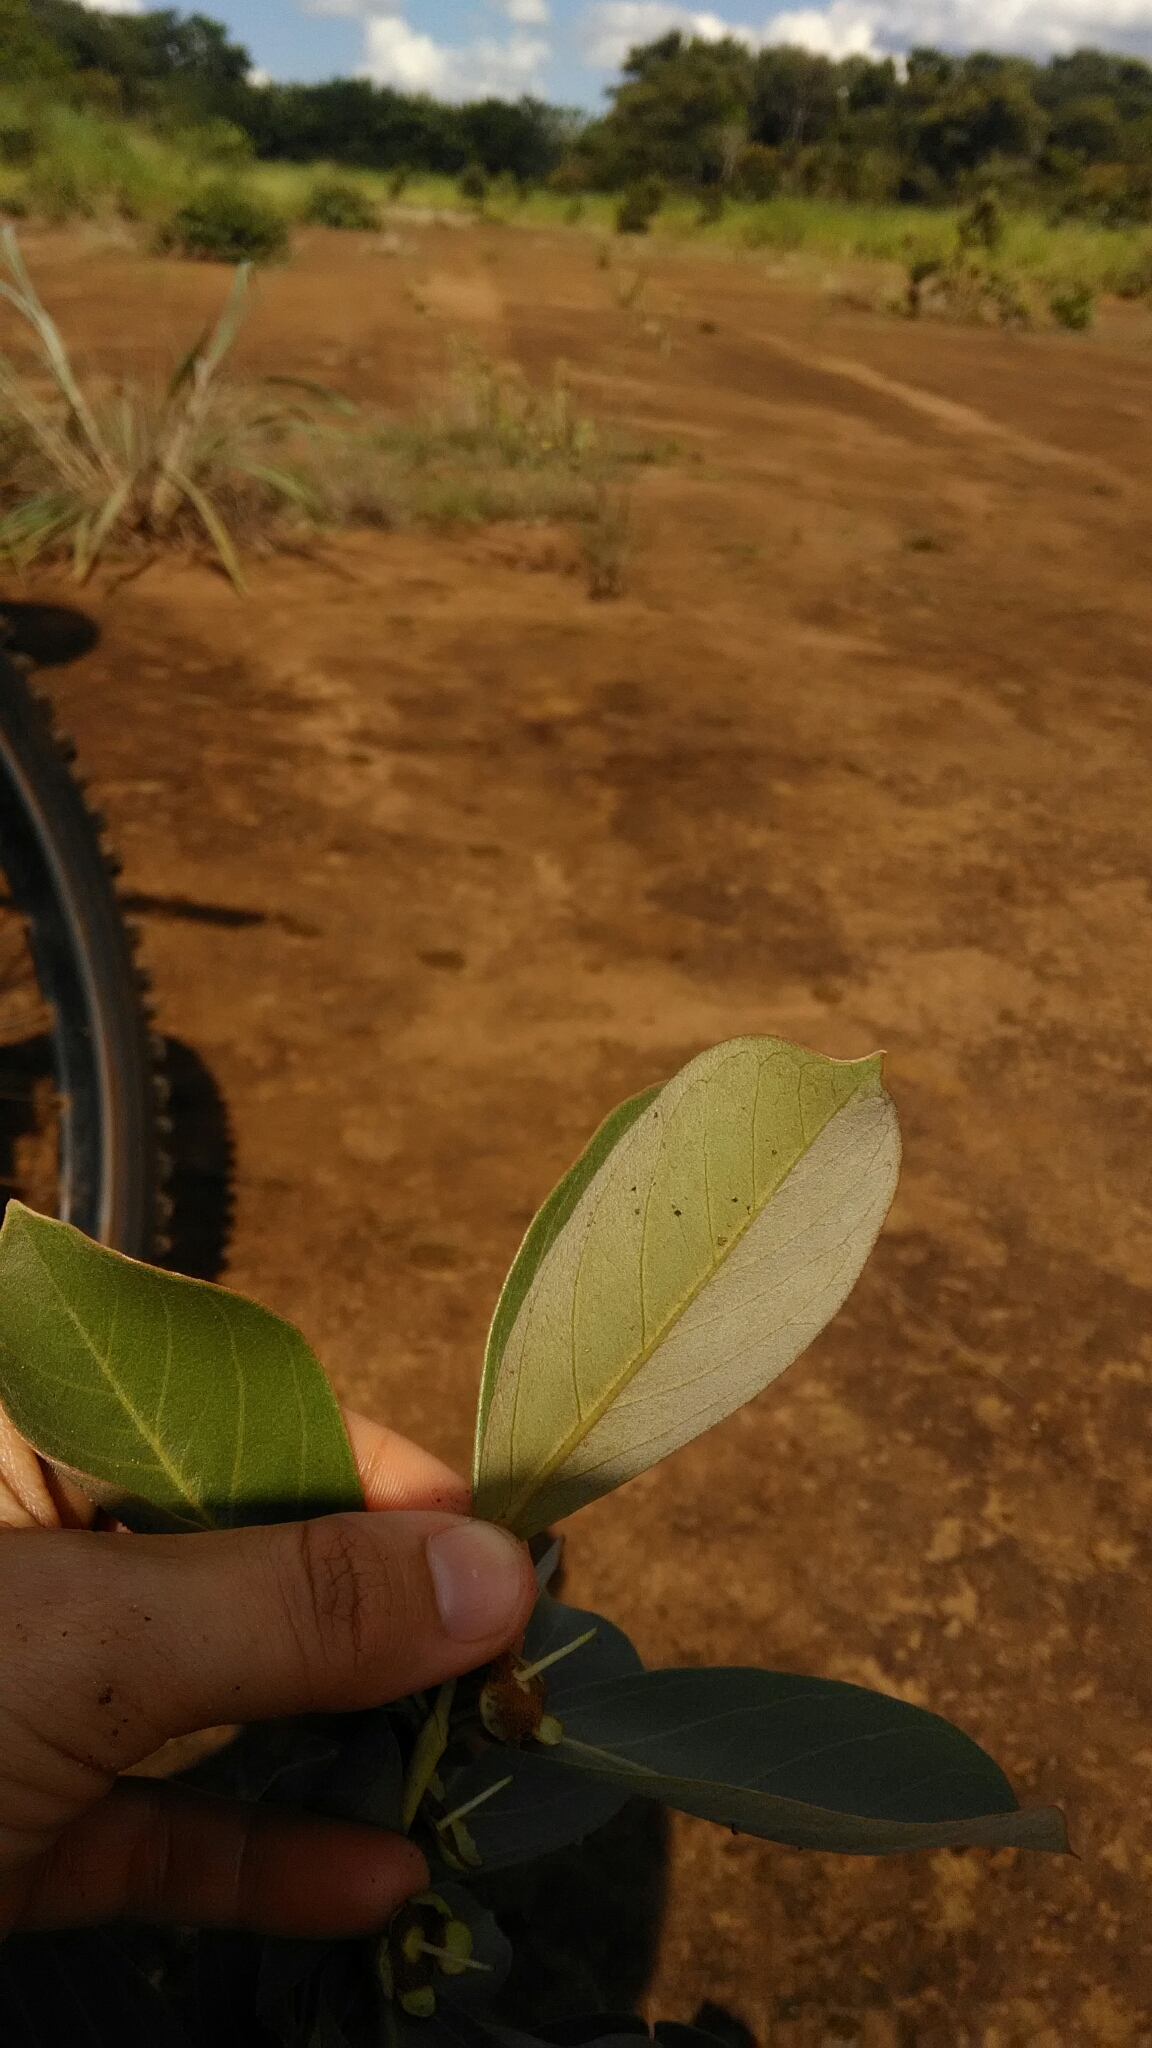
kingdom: Plantae
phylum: Tracheophyta
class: Magnoliopsida
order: Myrtales
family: Myrtaceae
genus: Psidium
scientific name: Psidium grandifolium
